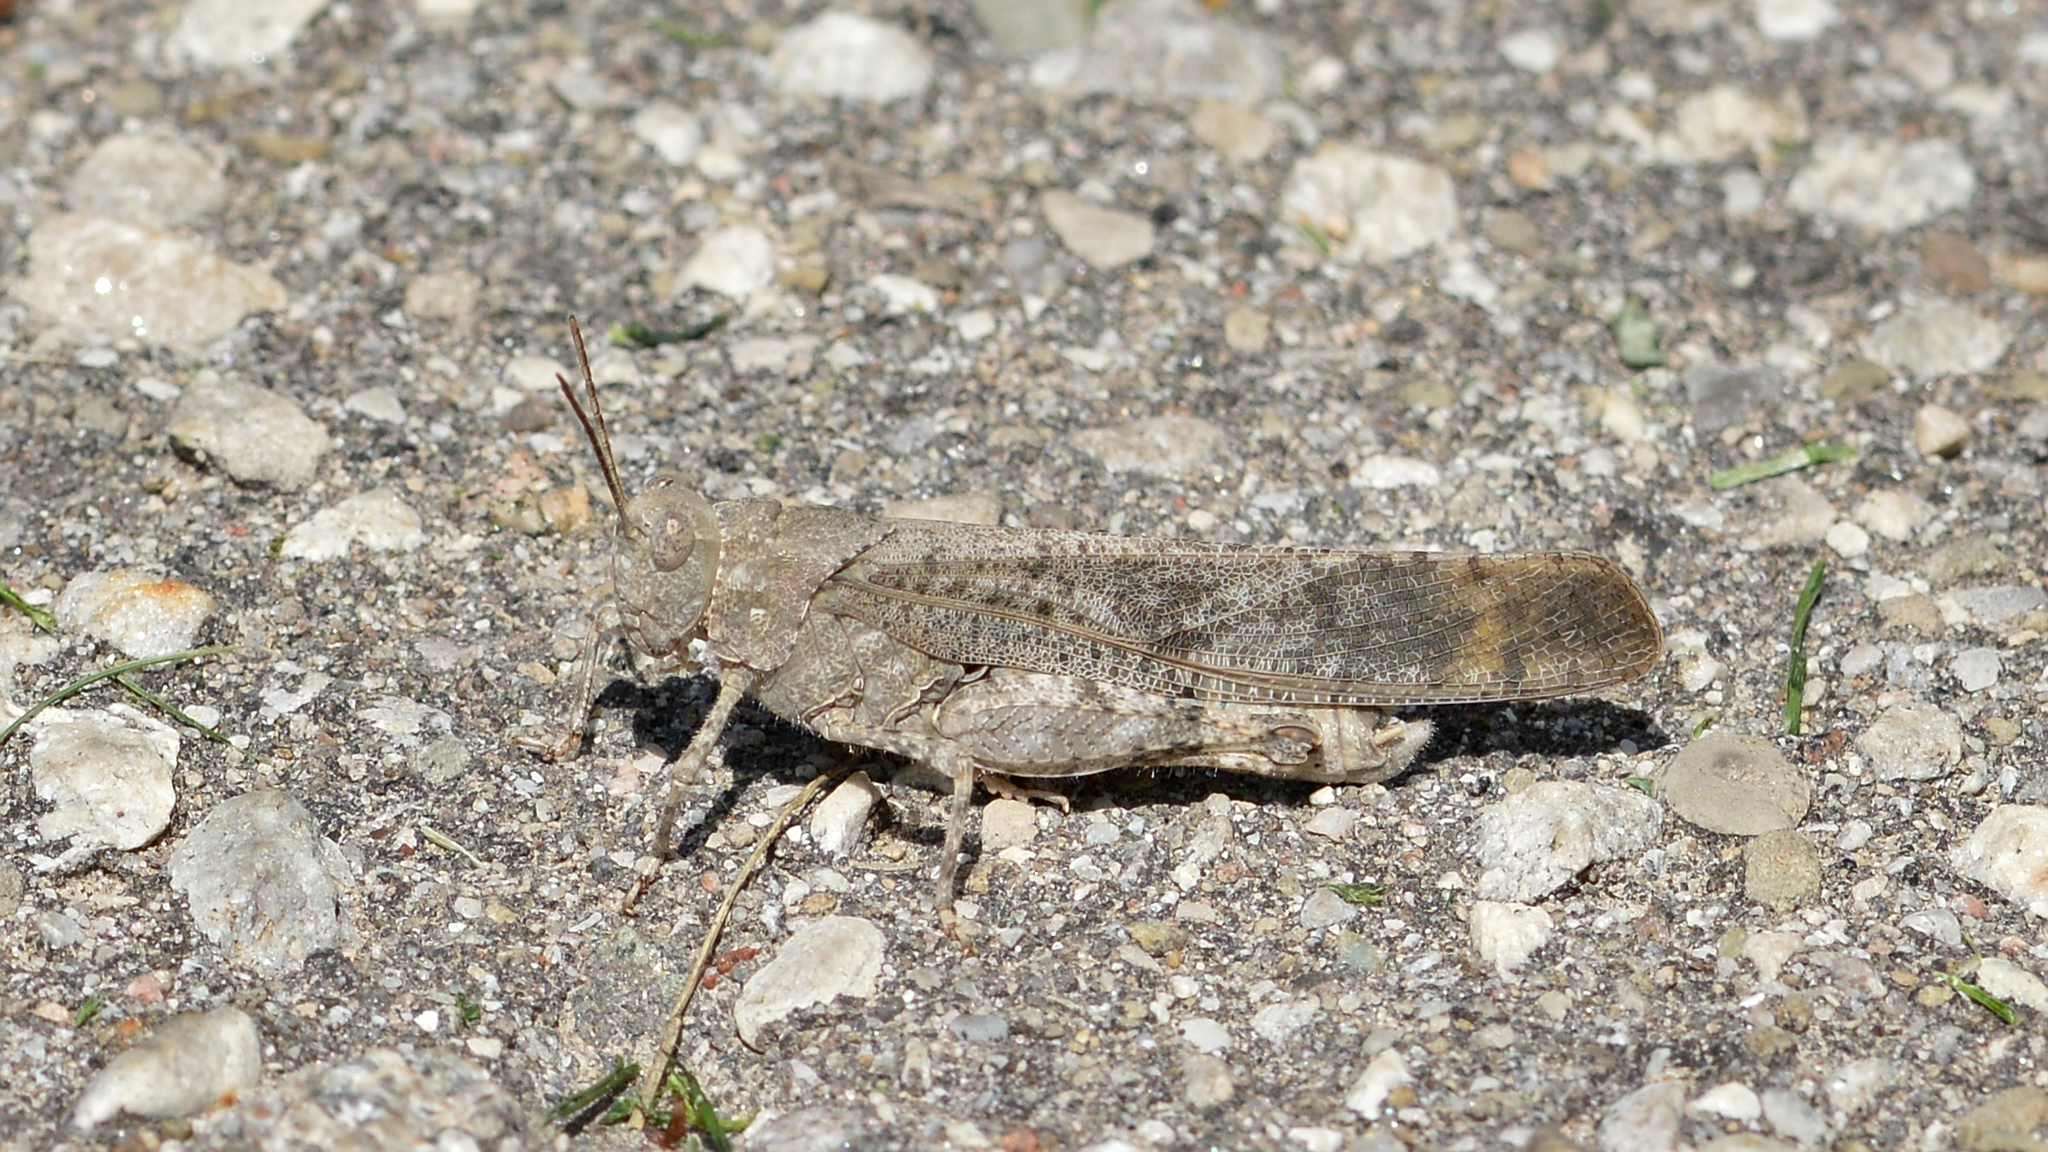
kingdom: Animalia
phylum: Arthropoda
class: Insecta
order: Orthoptera
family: Acrididae
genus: Dissosteira
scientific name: Dissosteira carolina
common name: Carolina grasshopper
